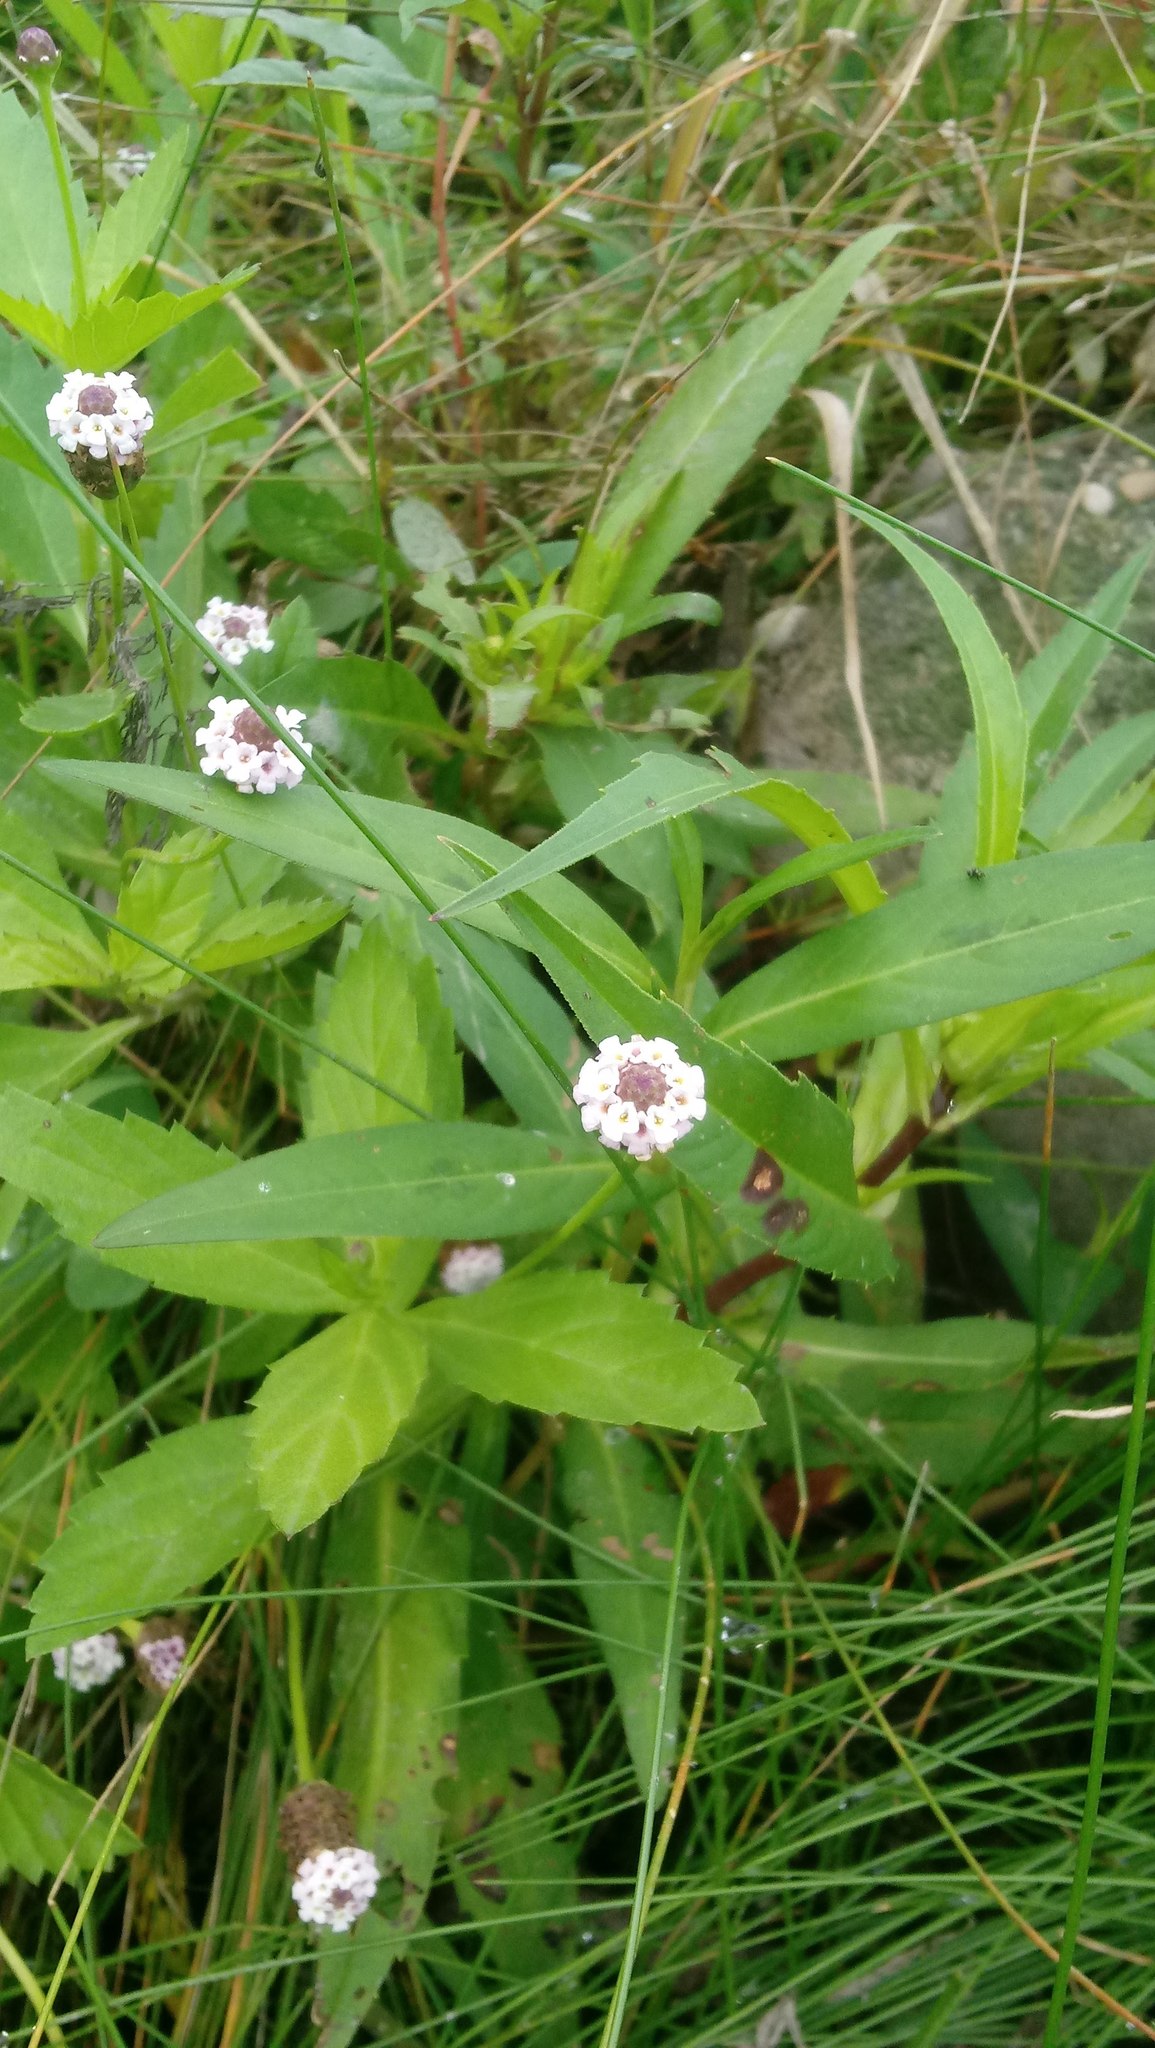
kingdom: Plantae
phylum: Tracheophyta
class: Magnoliopsida
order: Lamiales
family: Verbenaceae
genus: Phyla
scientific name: Phyla lanceolata
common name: Northern fogfruit
